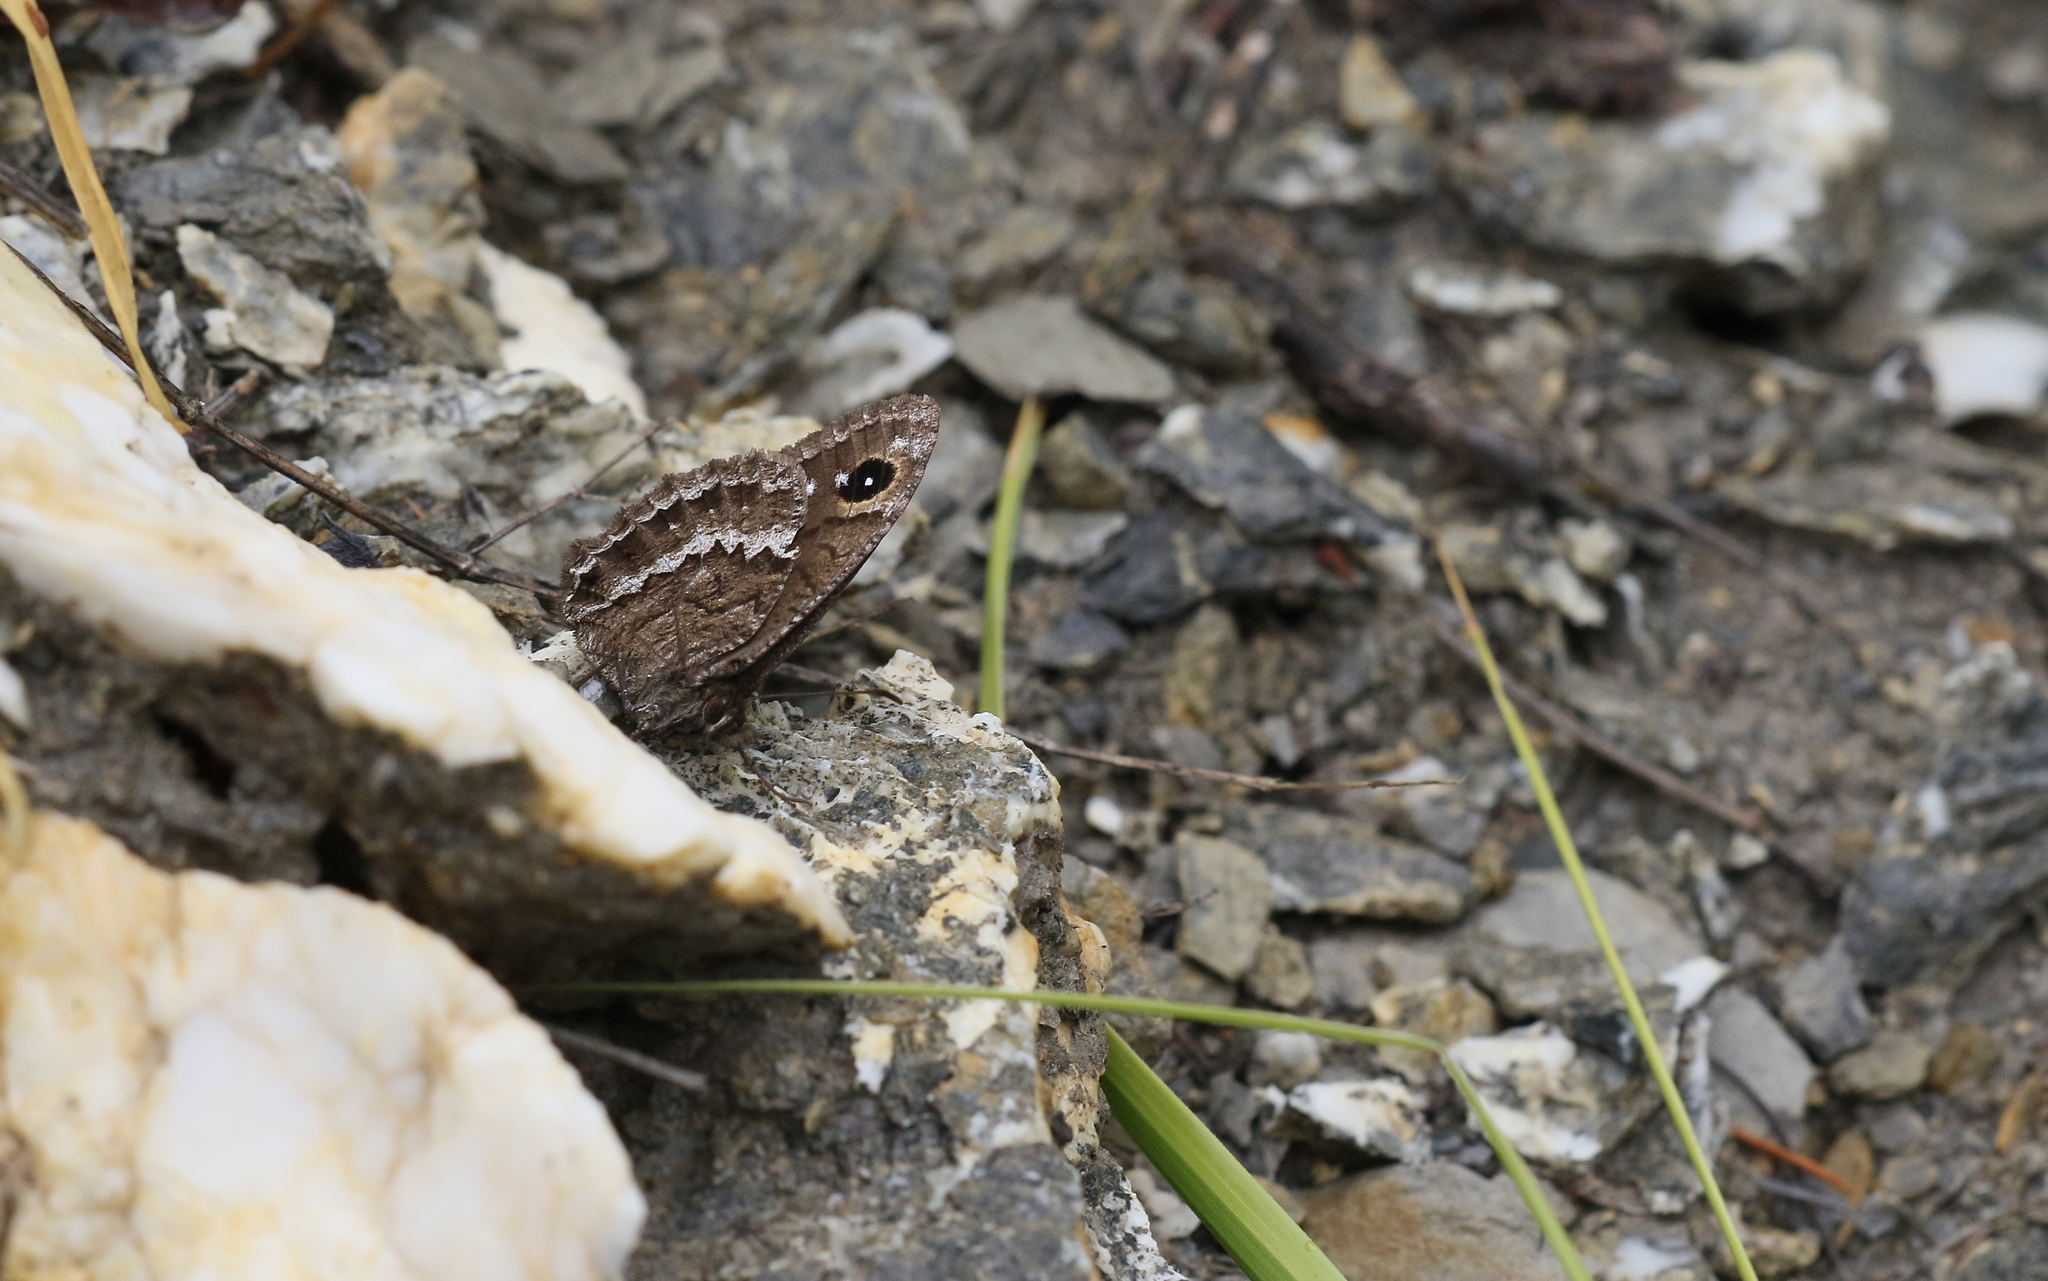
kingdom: Animalia
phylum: Arthropoda
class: Insecta
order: Lepidoptera
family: Nymphalidae
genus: Satyrus
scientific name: Satyrus ferula
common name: Great sooty satyr
